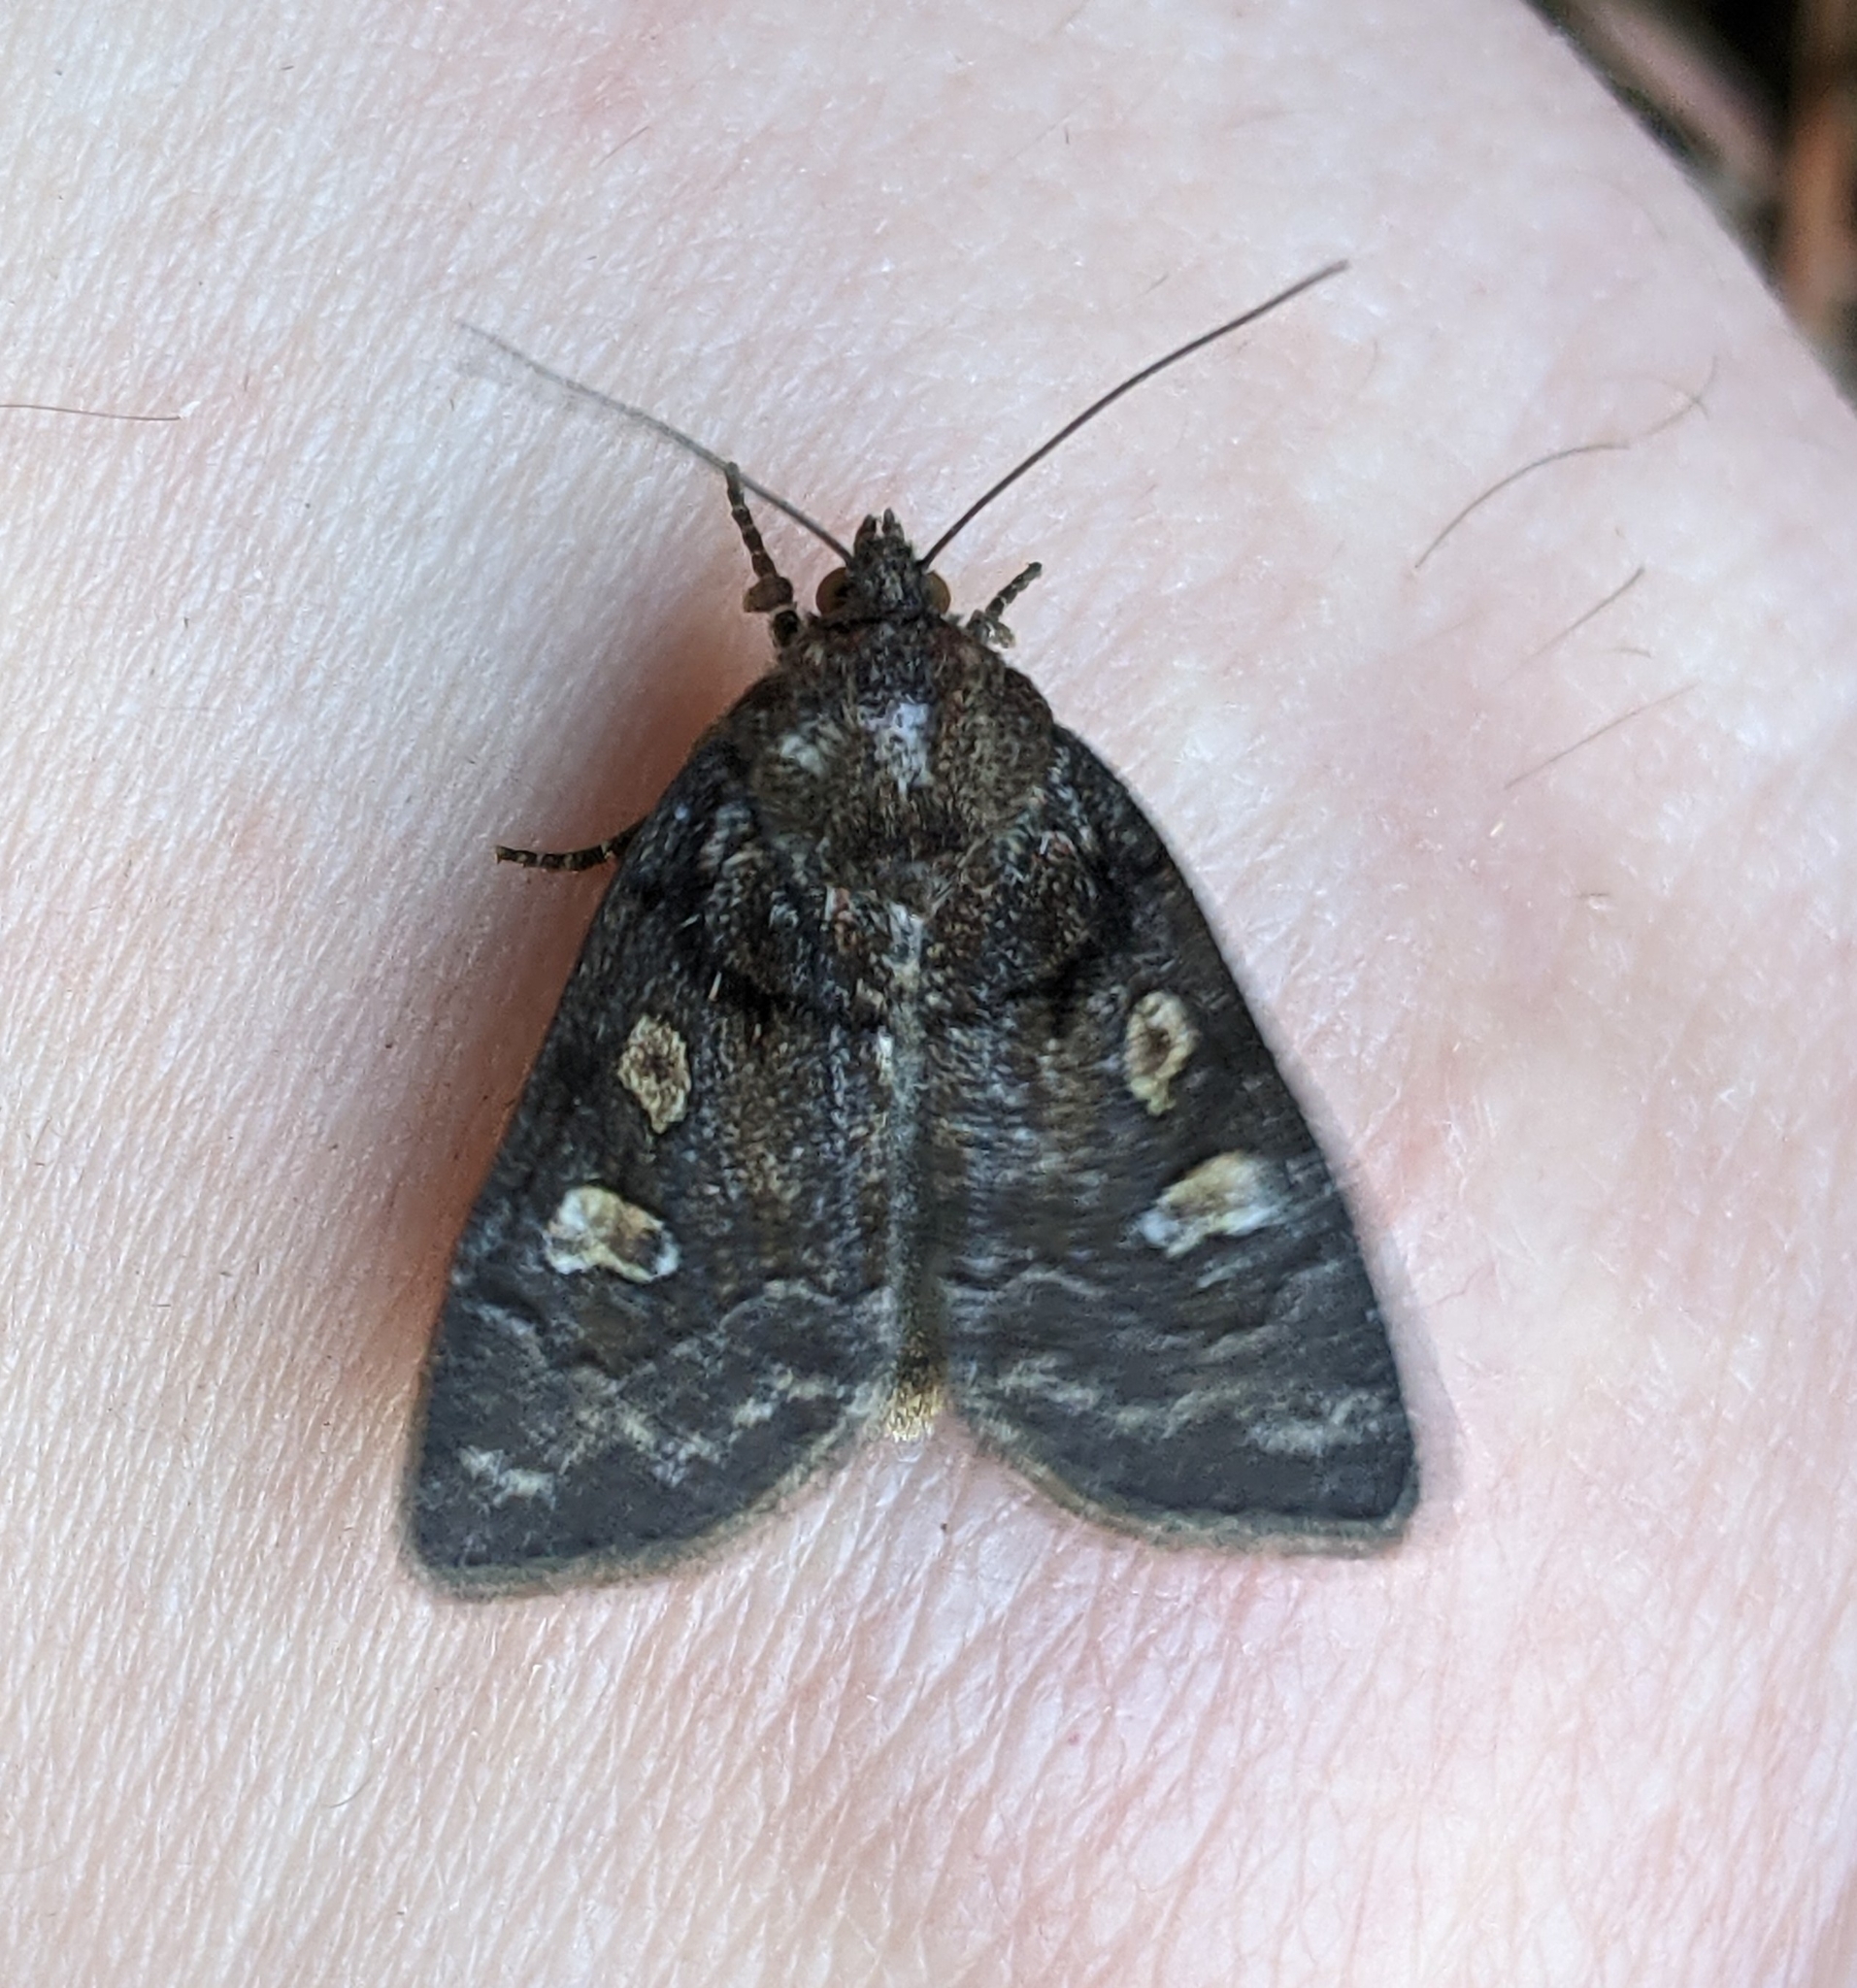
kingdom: Animalia
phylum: Arthropoda
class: Insecta
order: Lepidoptera
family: Noctuidae
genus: Cosmia
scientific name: Cosmia praeacuta
